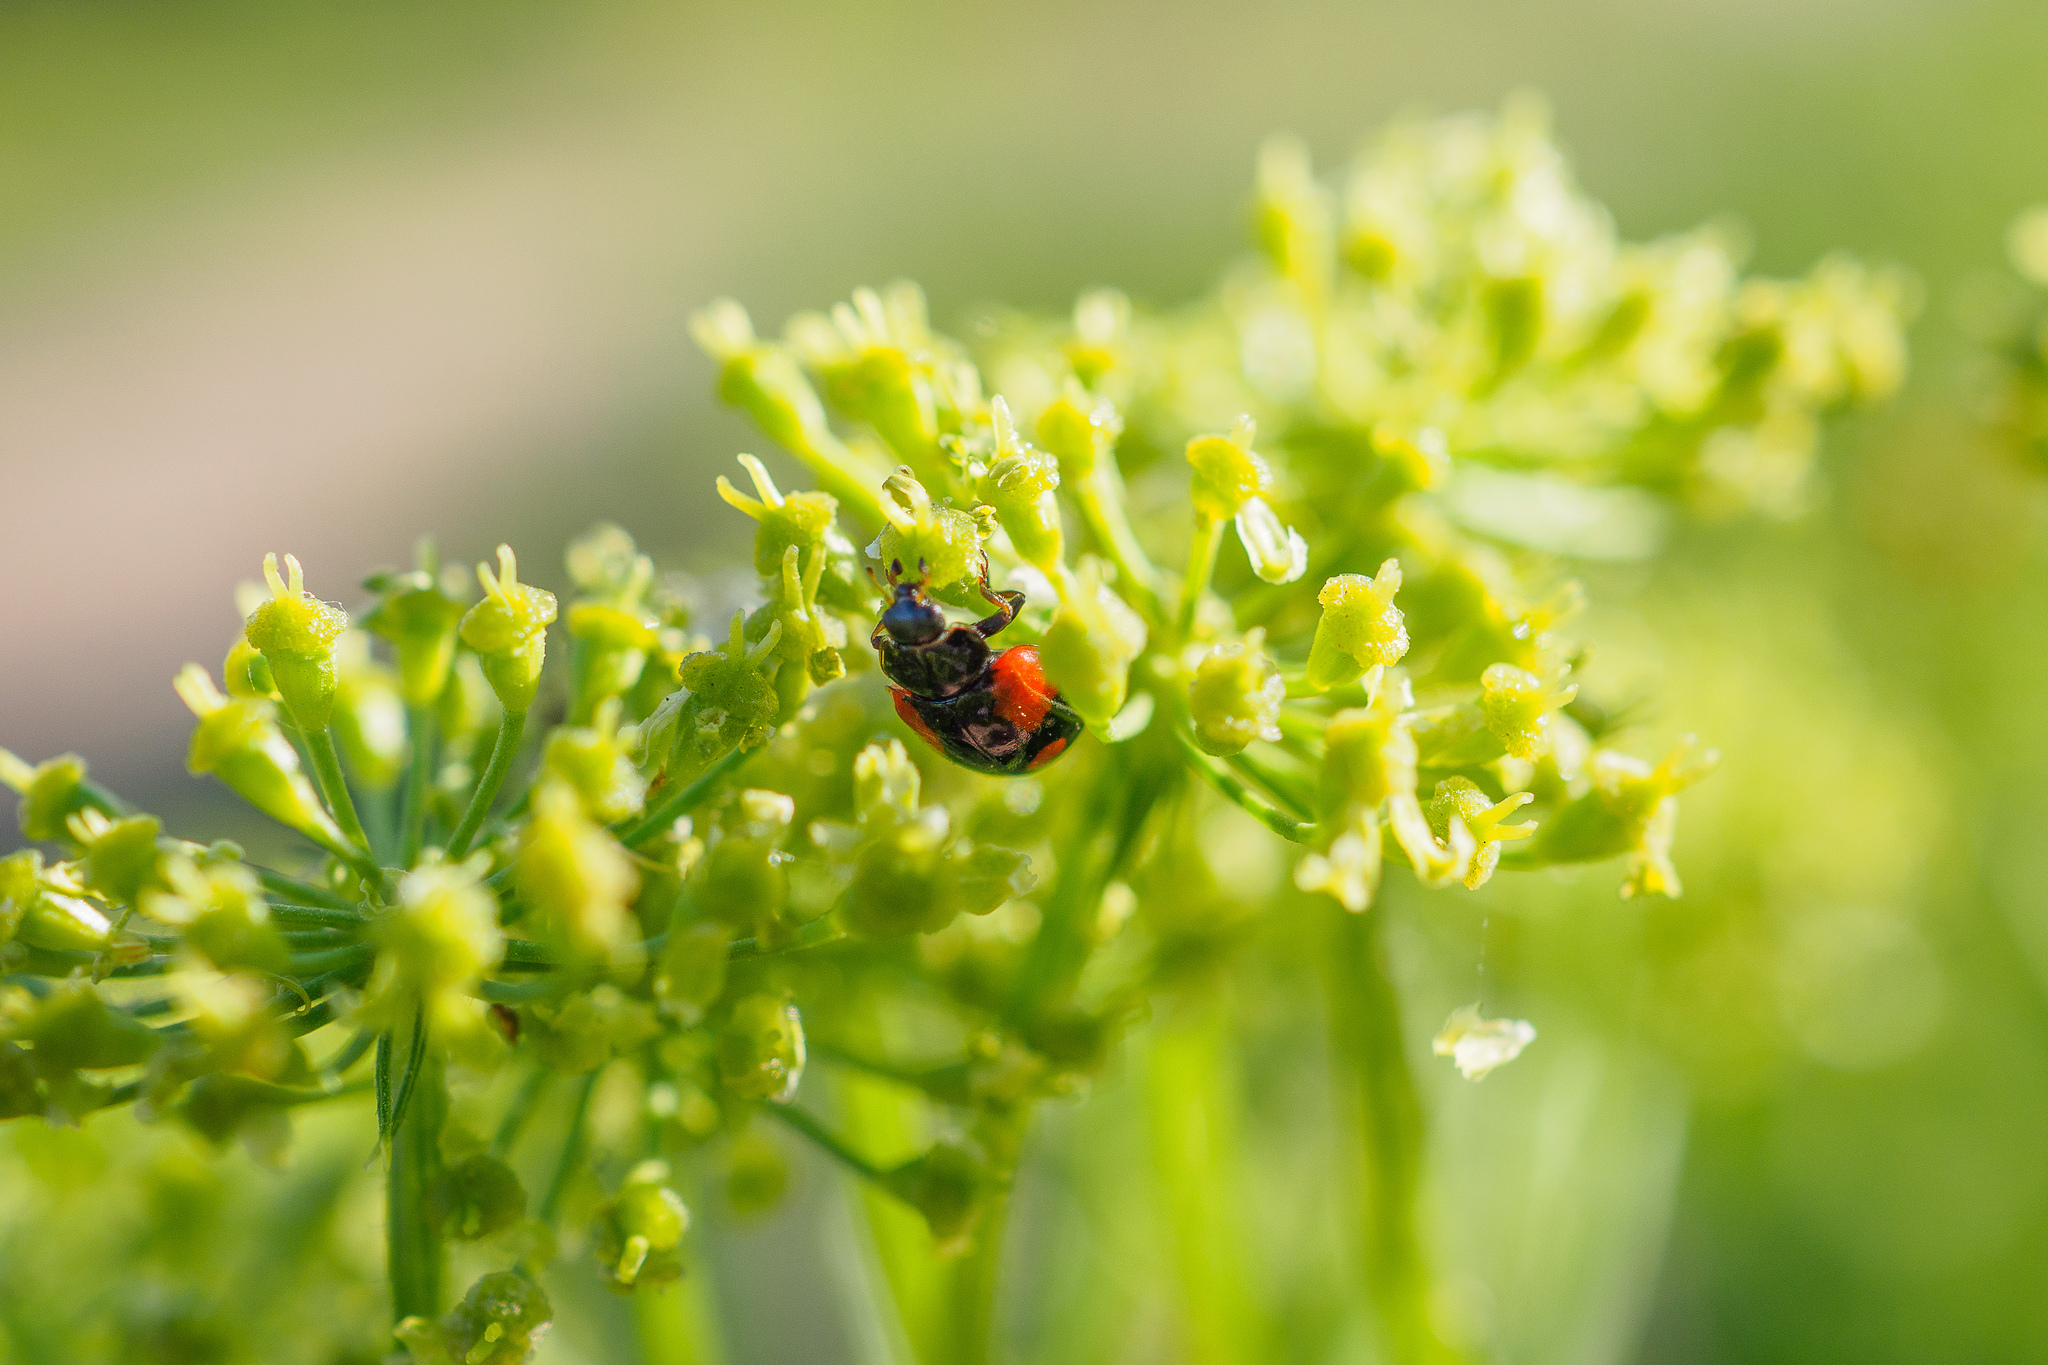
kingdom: Animalia
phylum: Arthropoda
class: Insecta
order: Coleoptera
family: Coccinellidae
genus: Adalia
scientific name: Adalia bipunctata
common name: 2-spot ladybird
